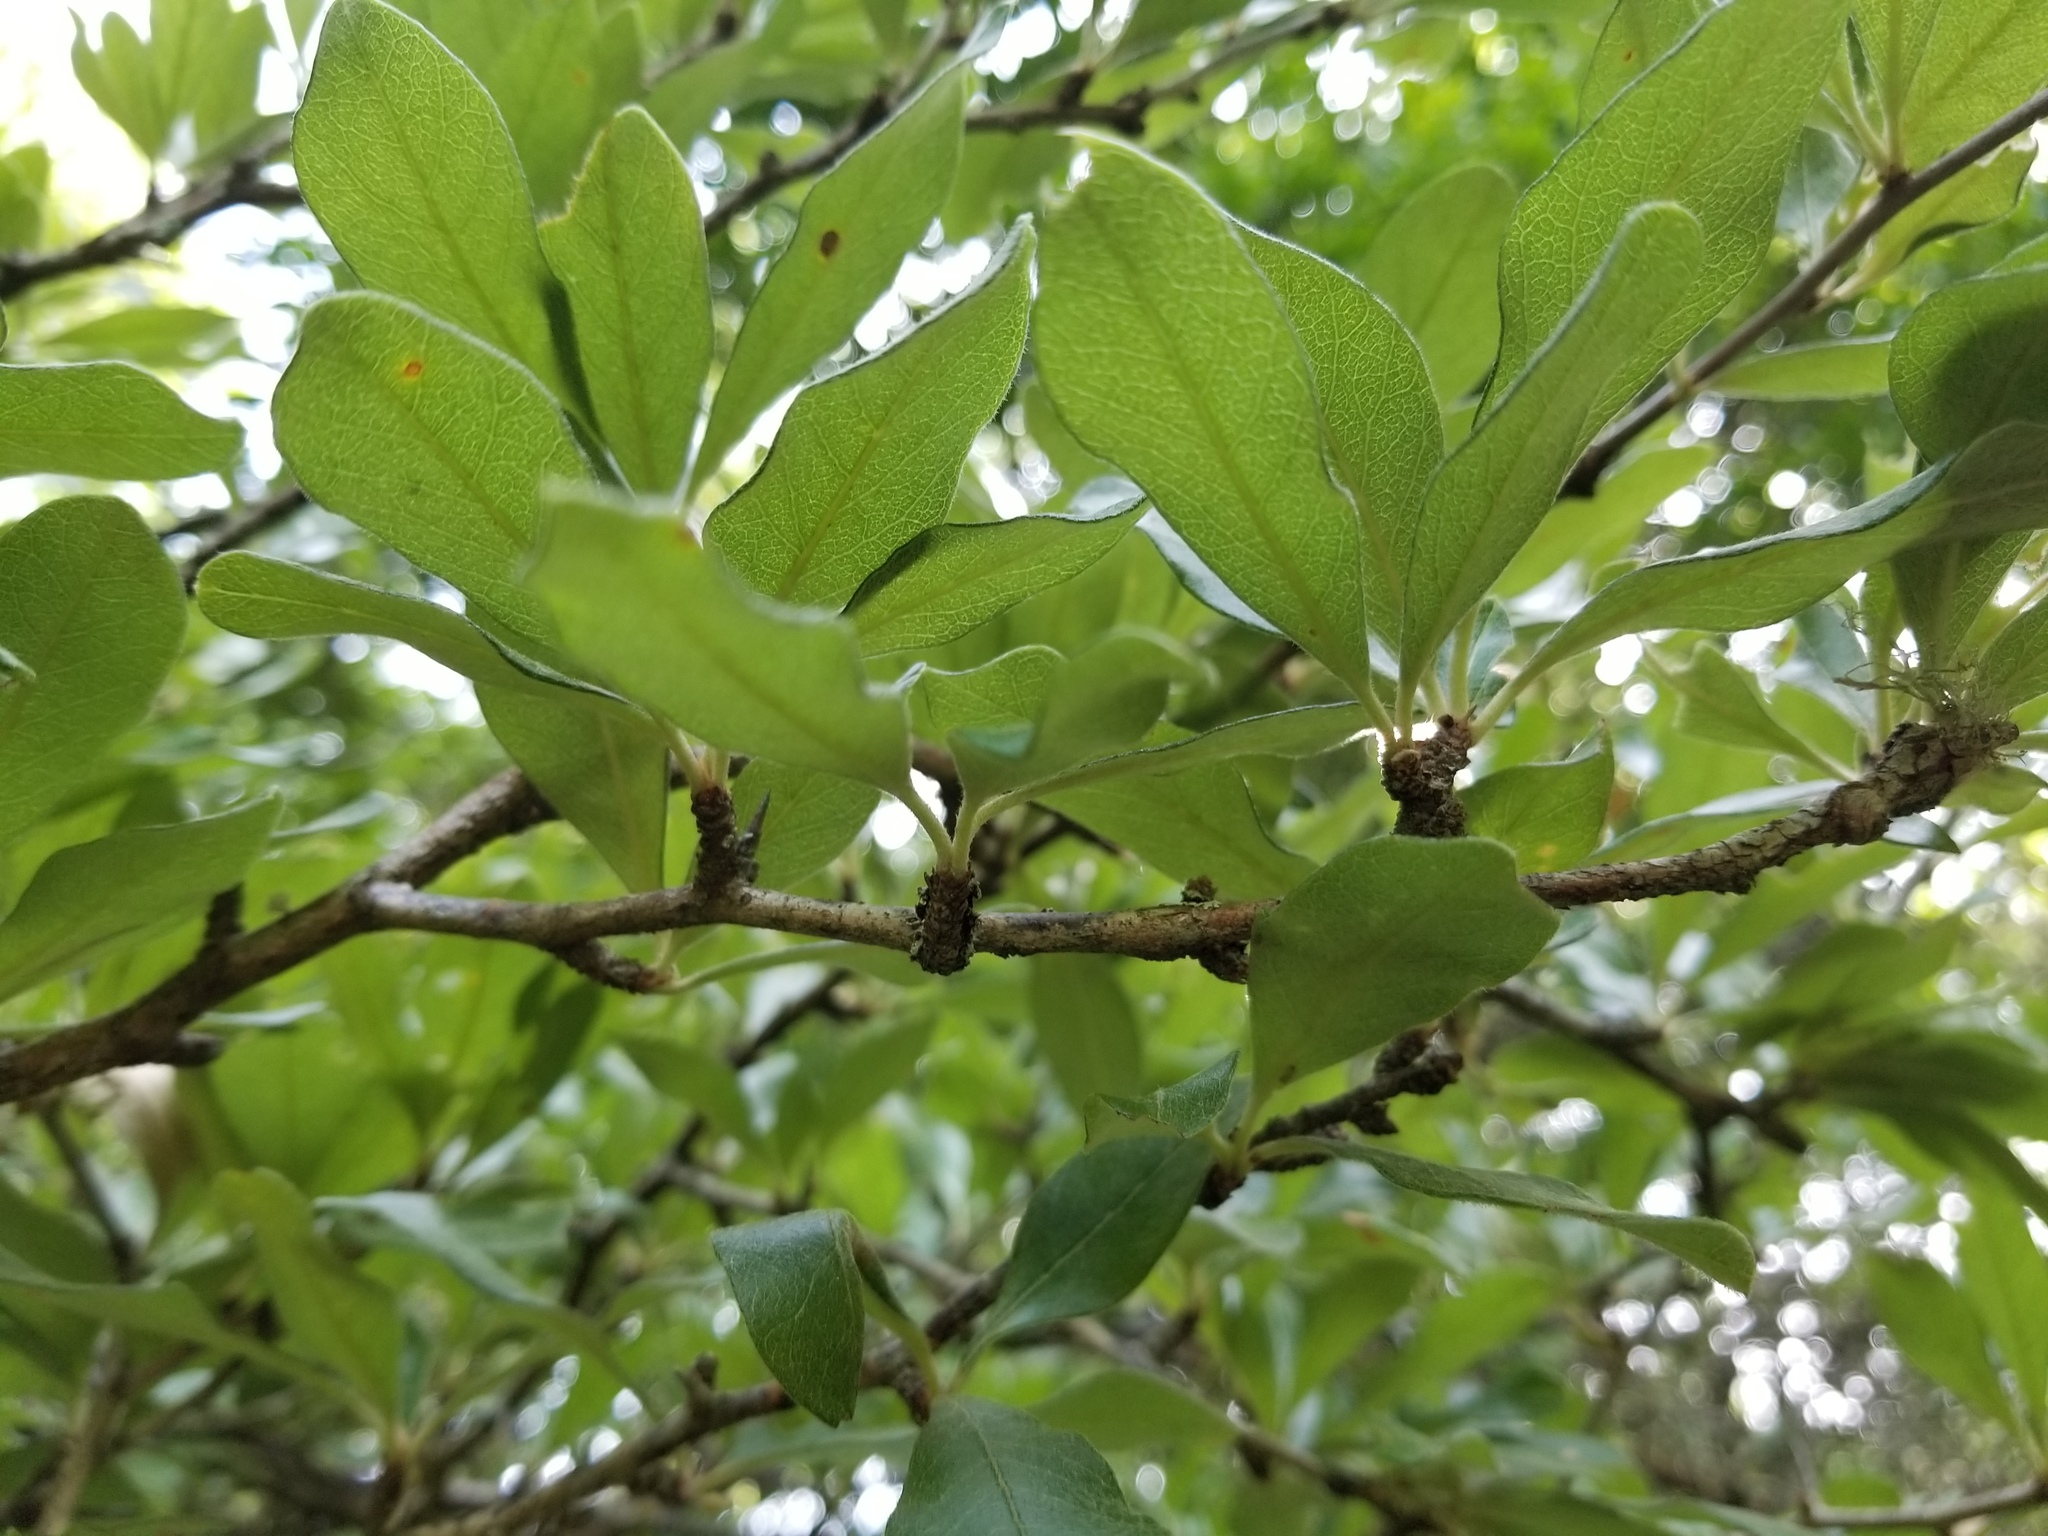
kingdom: Plantae
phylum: Tracheophyta
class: Magnoliopsida
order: Ericales
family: Sapotaceae
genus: Sideroxylon
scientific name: Sideroxylon lanuginosum
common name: Chittamwood
